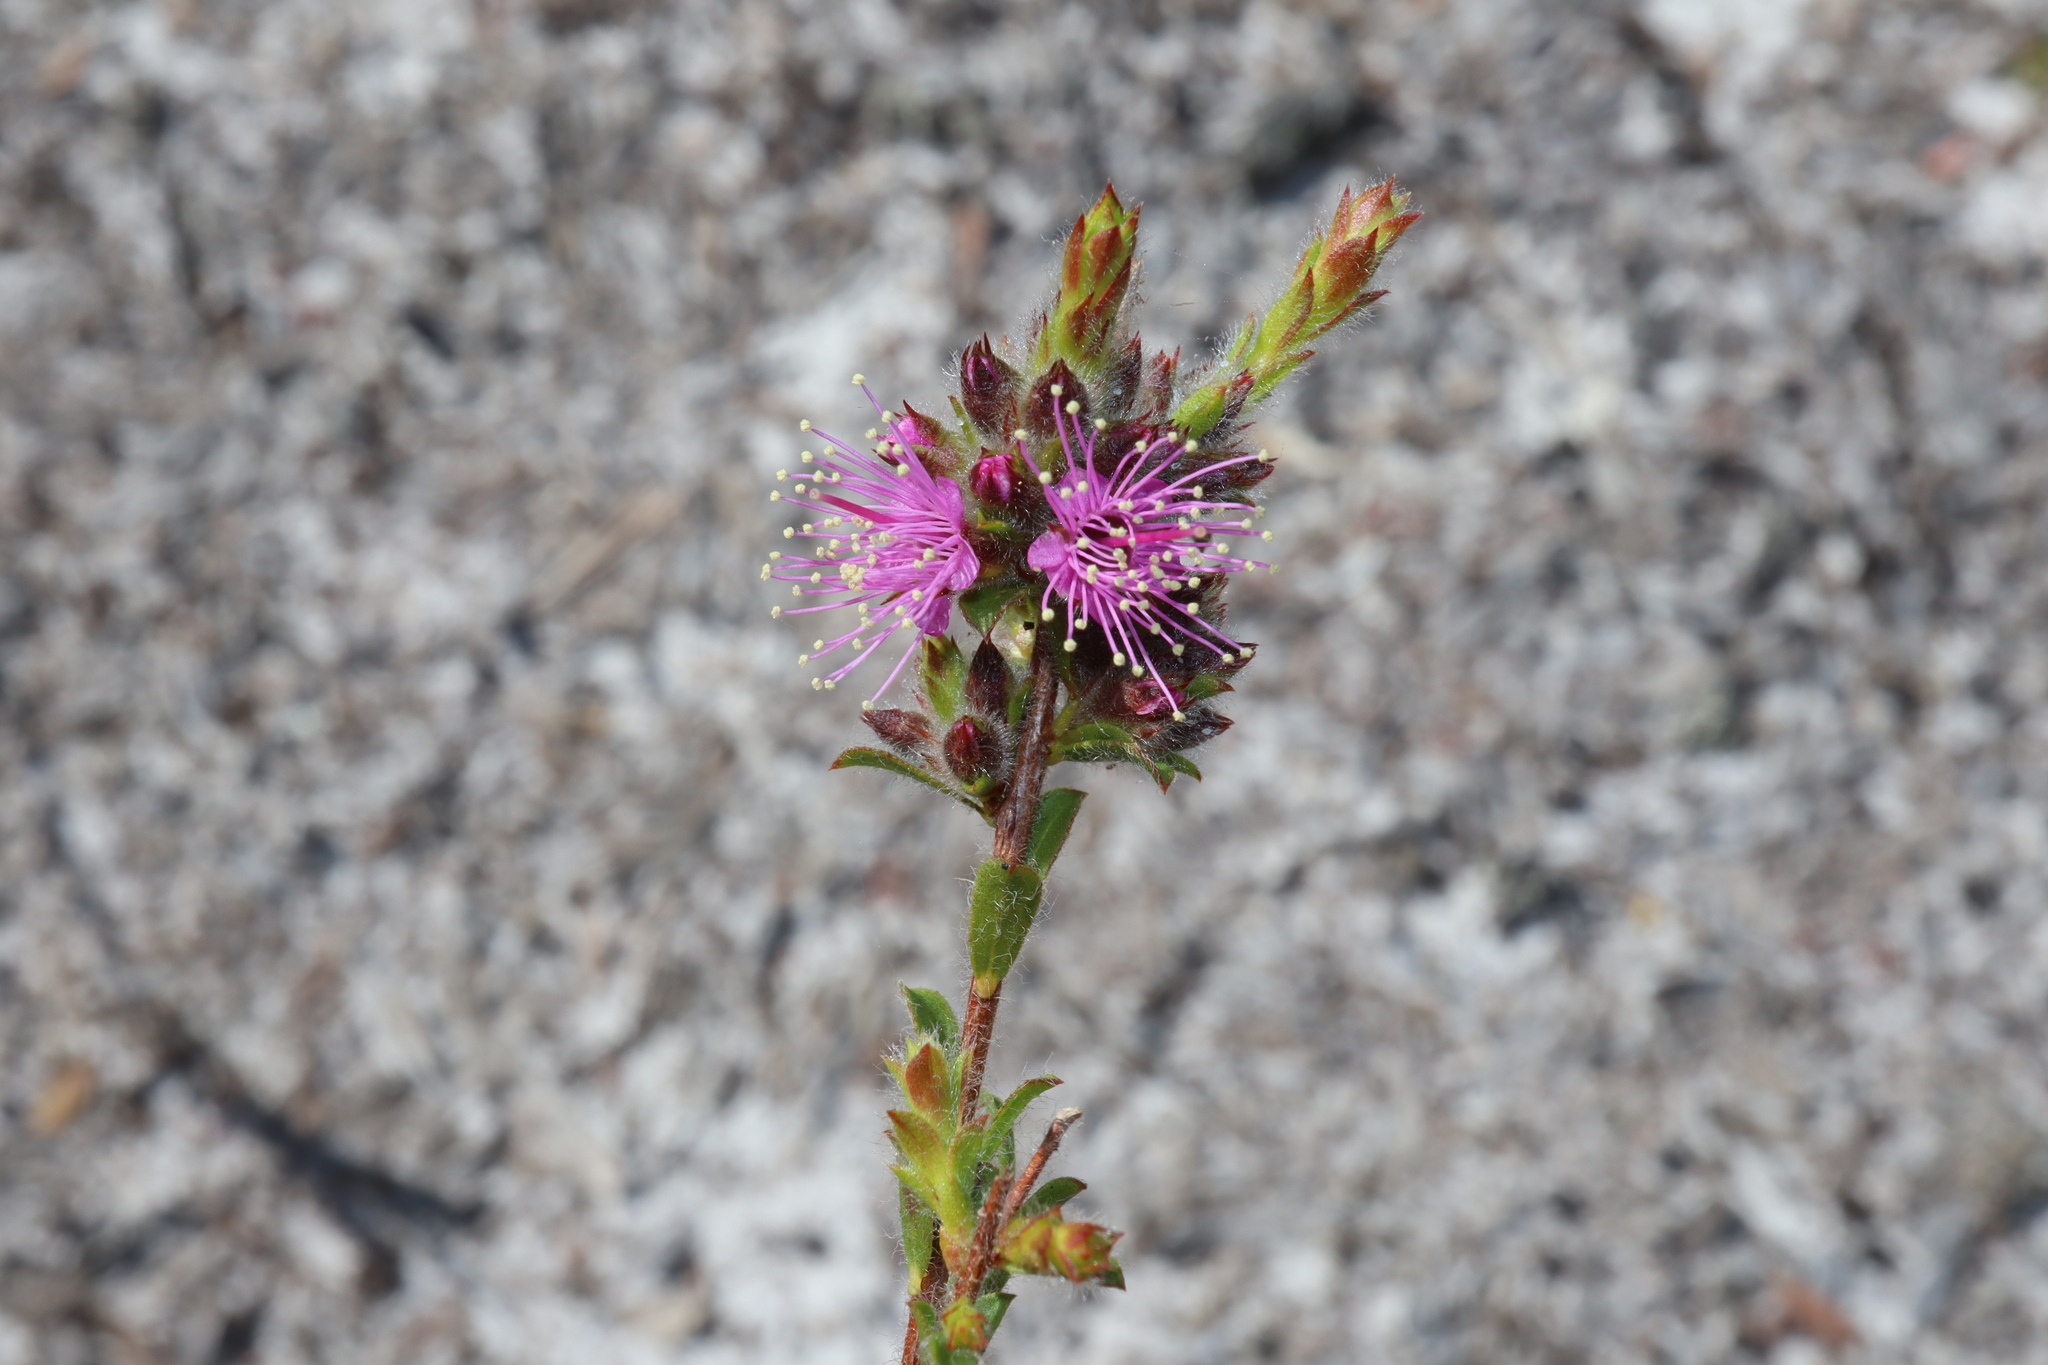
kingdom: Plantae
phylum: Tracheophyta
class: Magnoliopsida
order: Myrtales
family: Myrtaceae
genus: Kunzea
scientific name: Kunzea capitata
